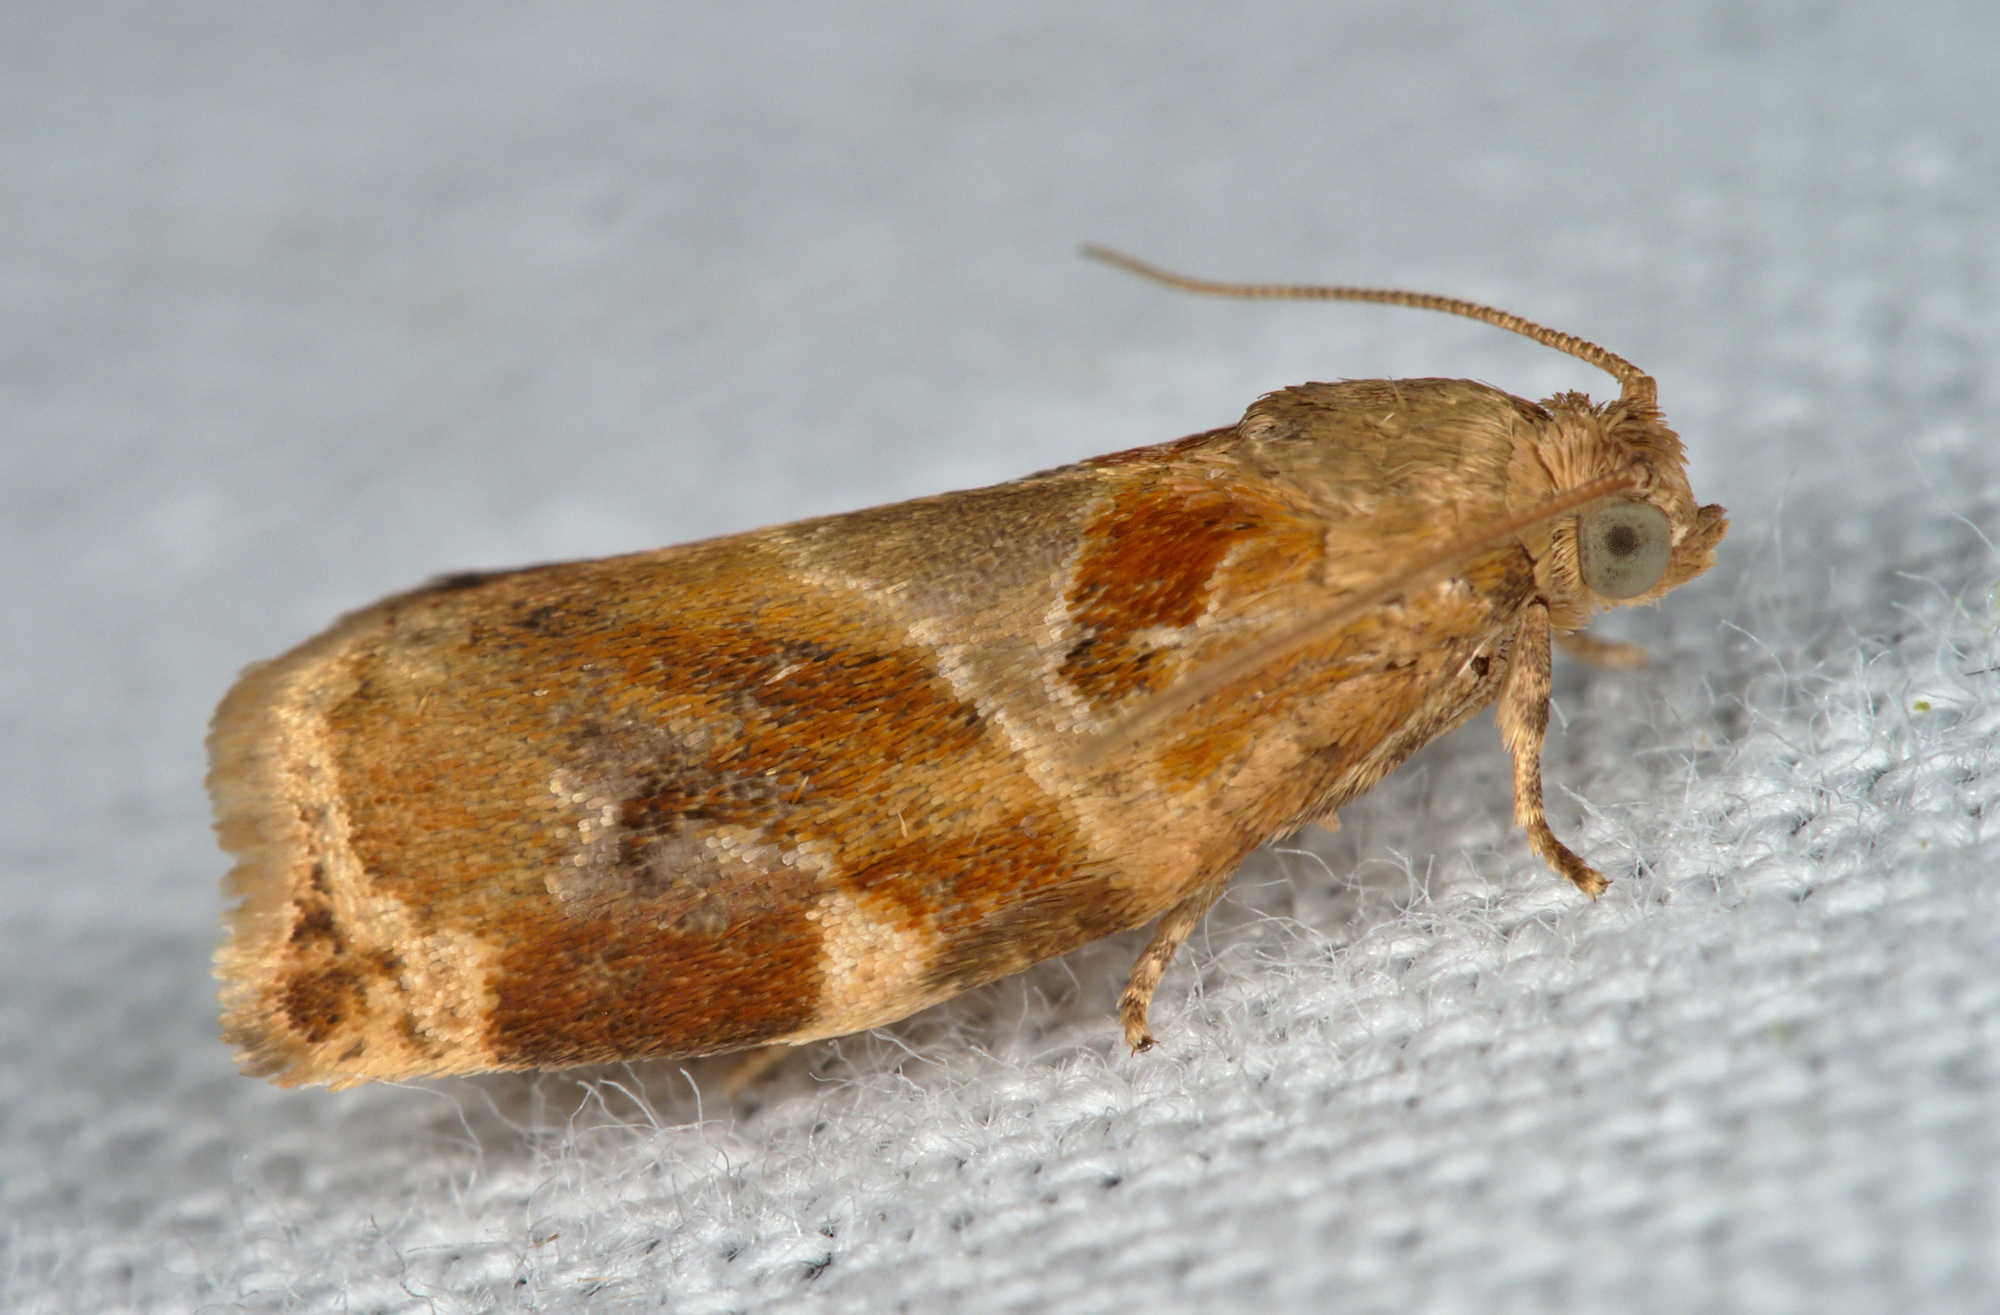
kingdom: Animalia
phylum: Arthropoda
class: Insecta
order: Lepidoptera
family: Tortricidae
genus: Archips
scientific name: Archips xylosteana
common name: Variegated golden tortrix
